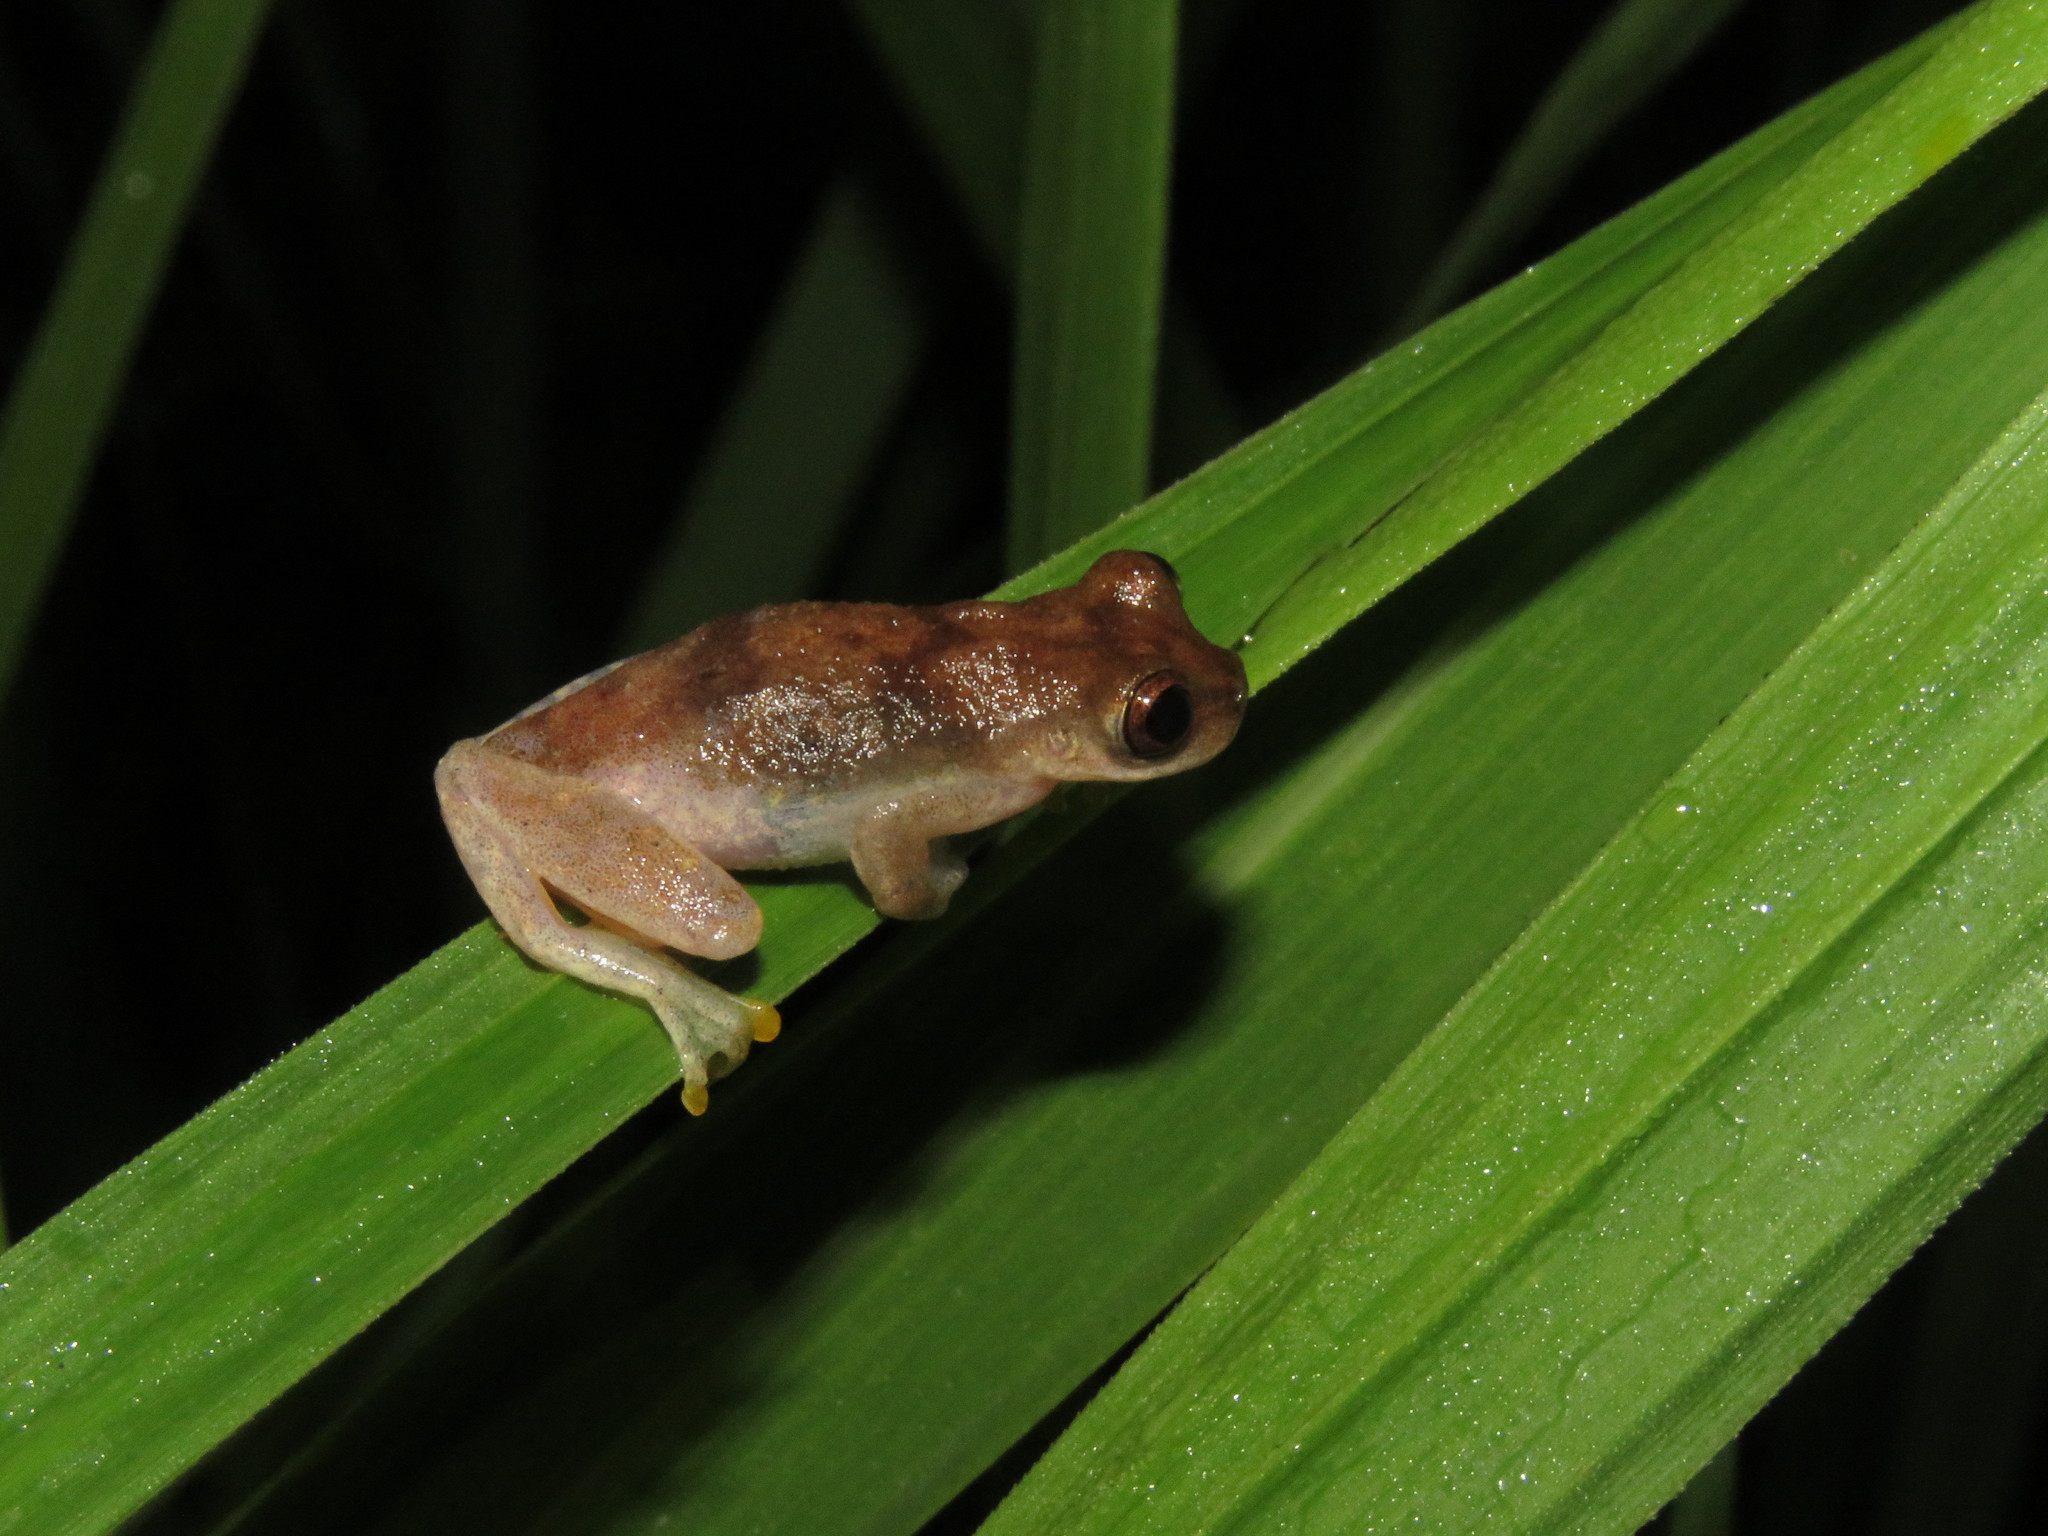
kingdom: Animalia
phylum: Chordata
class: Amphibia
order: Anura
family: Hylidae
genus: Dendropsophus
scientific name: Dendropsophus leali
